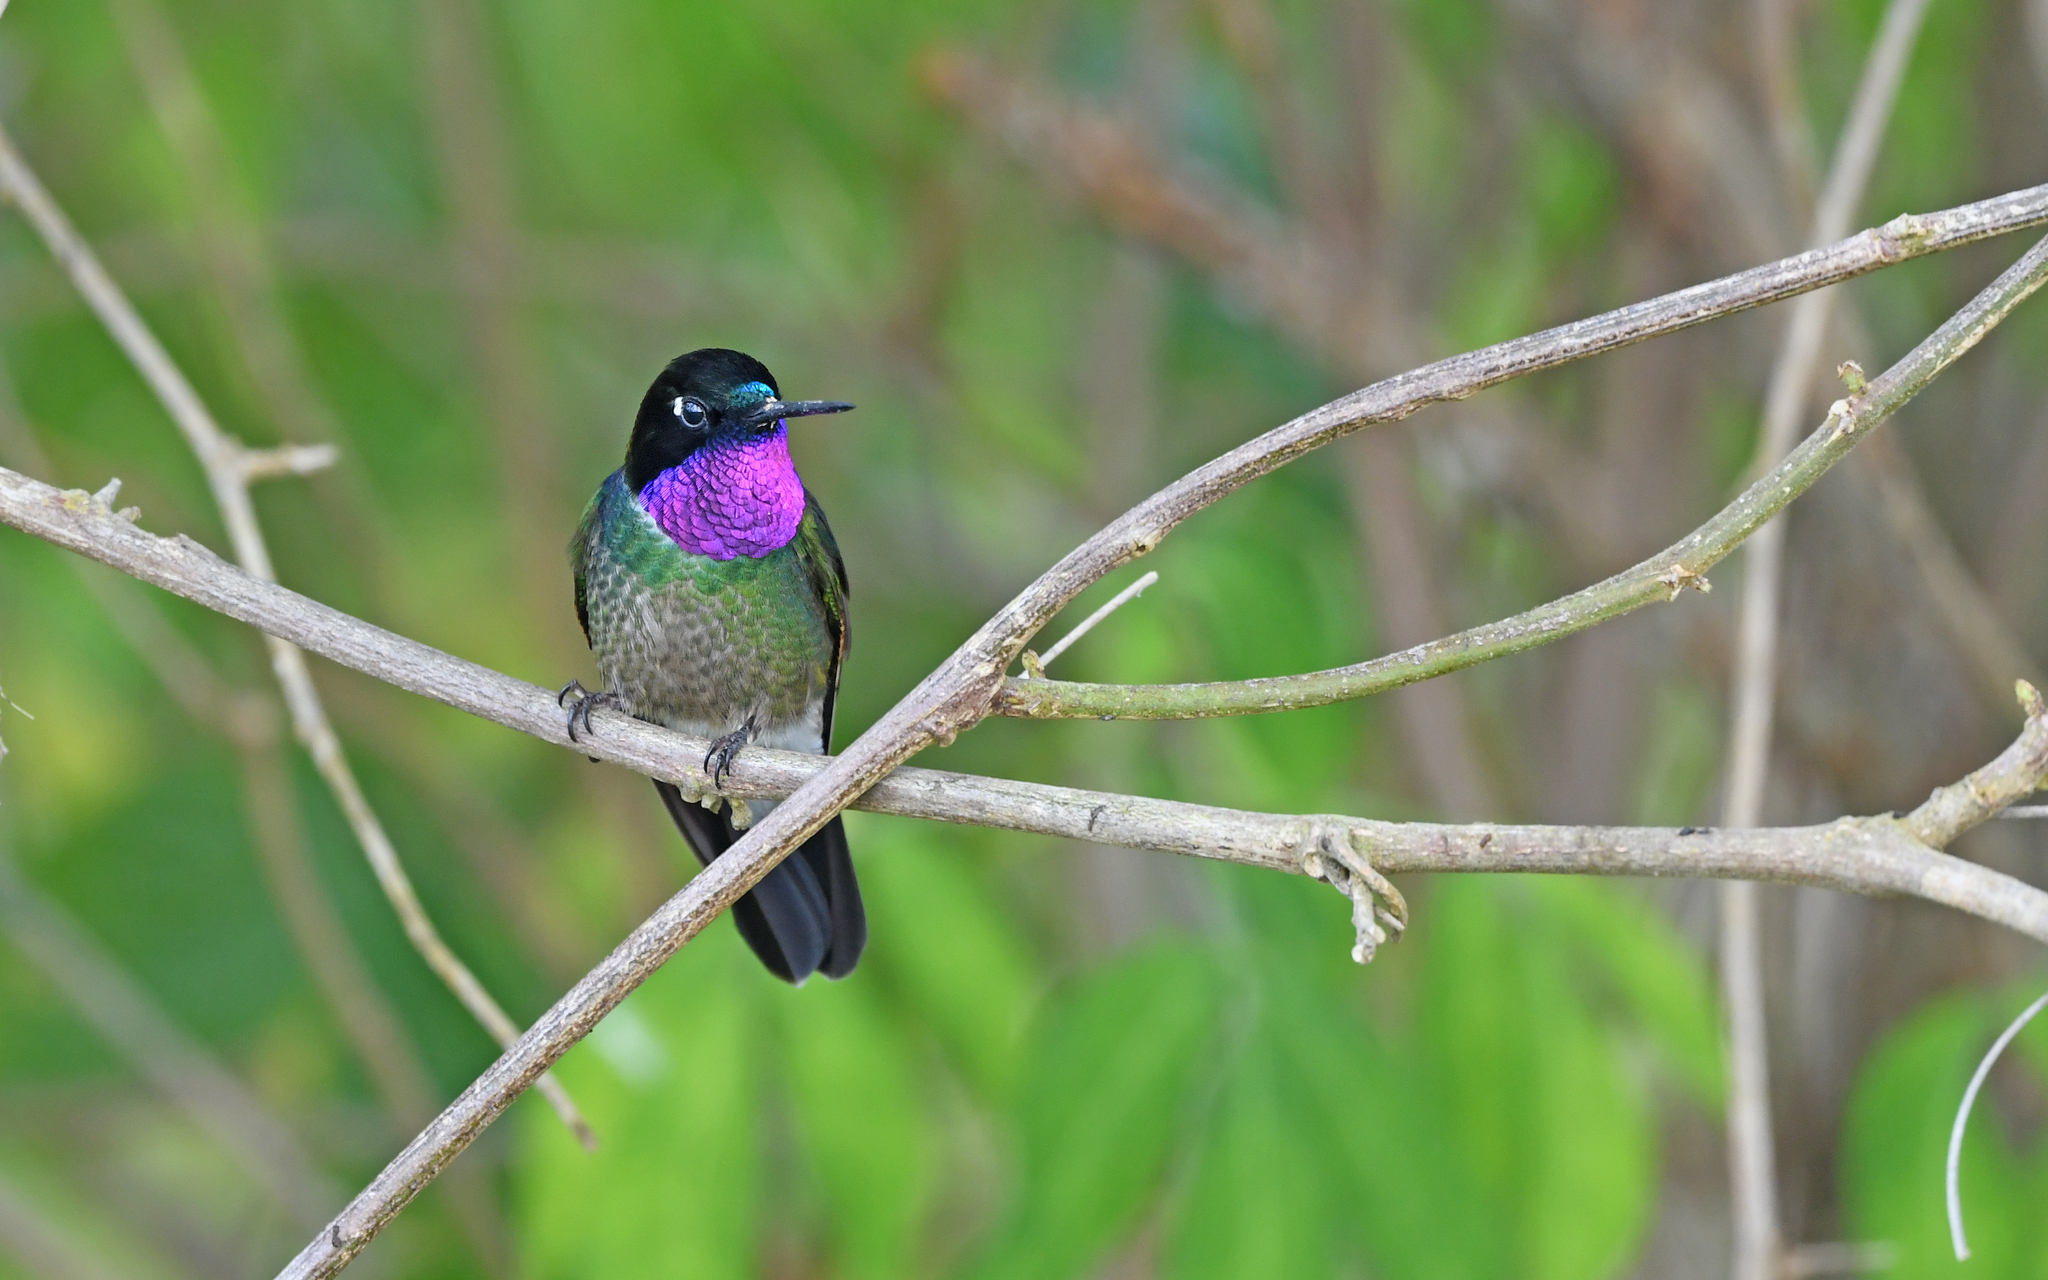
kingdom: Animalia
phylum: Chordata
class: Aves
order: Apodiformes
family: Trochilidae
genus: Heliangelus
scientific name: Heliangelus clarisse
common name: Longuemare's sunangel
